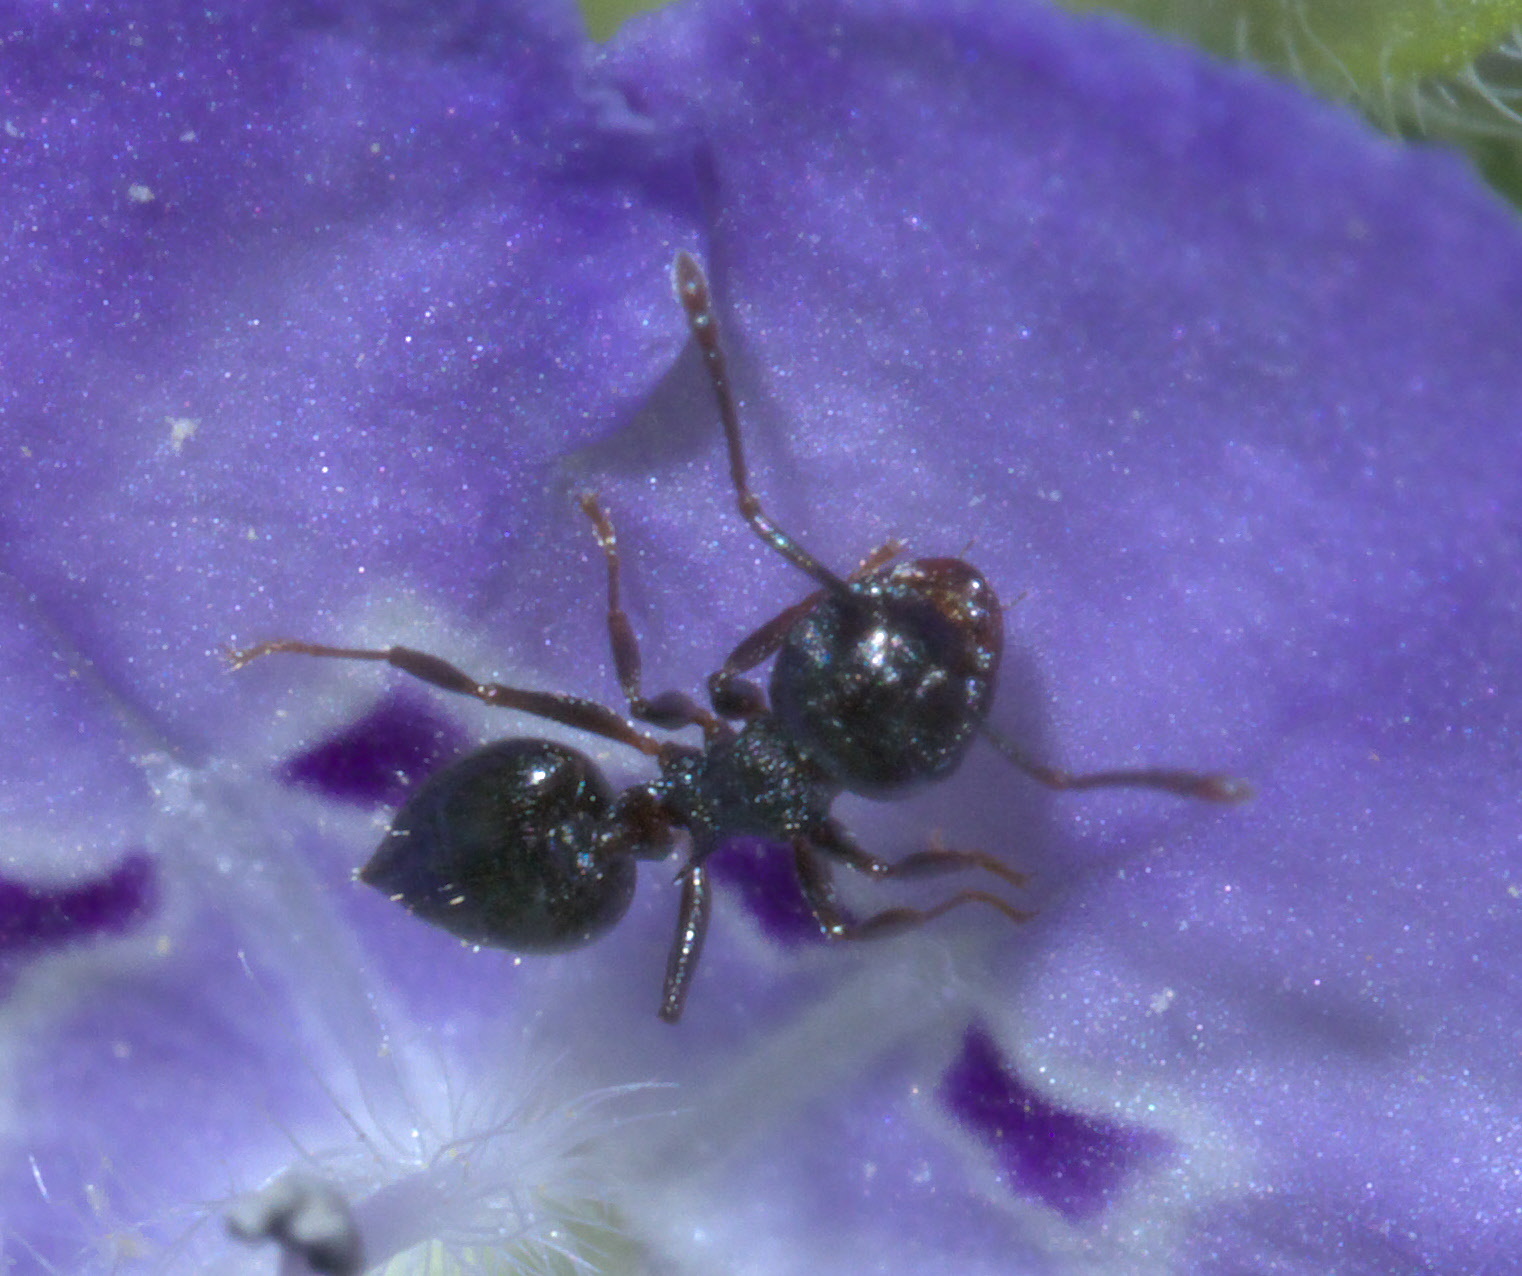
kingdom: Animalia
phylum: Arthropoda
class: Insecta
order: Hymenoptera
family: Formicidae
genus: Crematogaster
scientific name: Crematogaster lineolata
